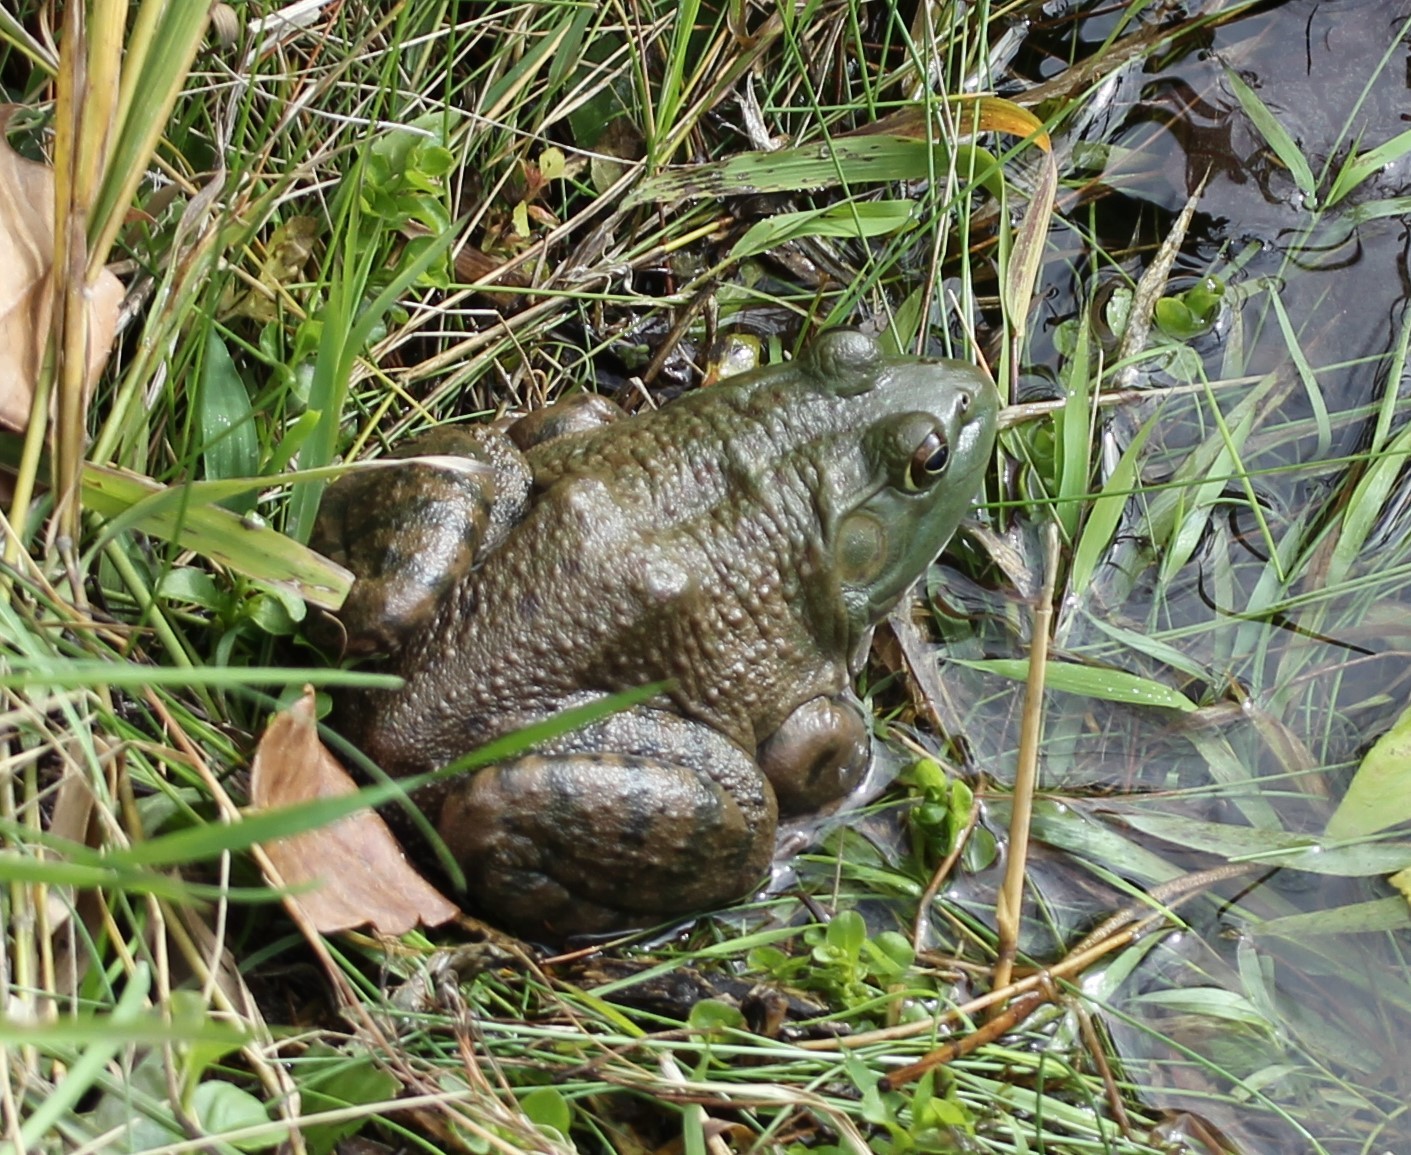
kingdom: Animalia
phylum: Chordata
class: Amphibia
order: Anura
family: Ranidae
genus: Lithobates
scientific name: Lithobates catesbeianus
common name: American bullfrog
